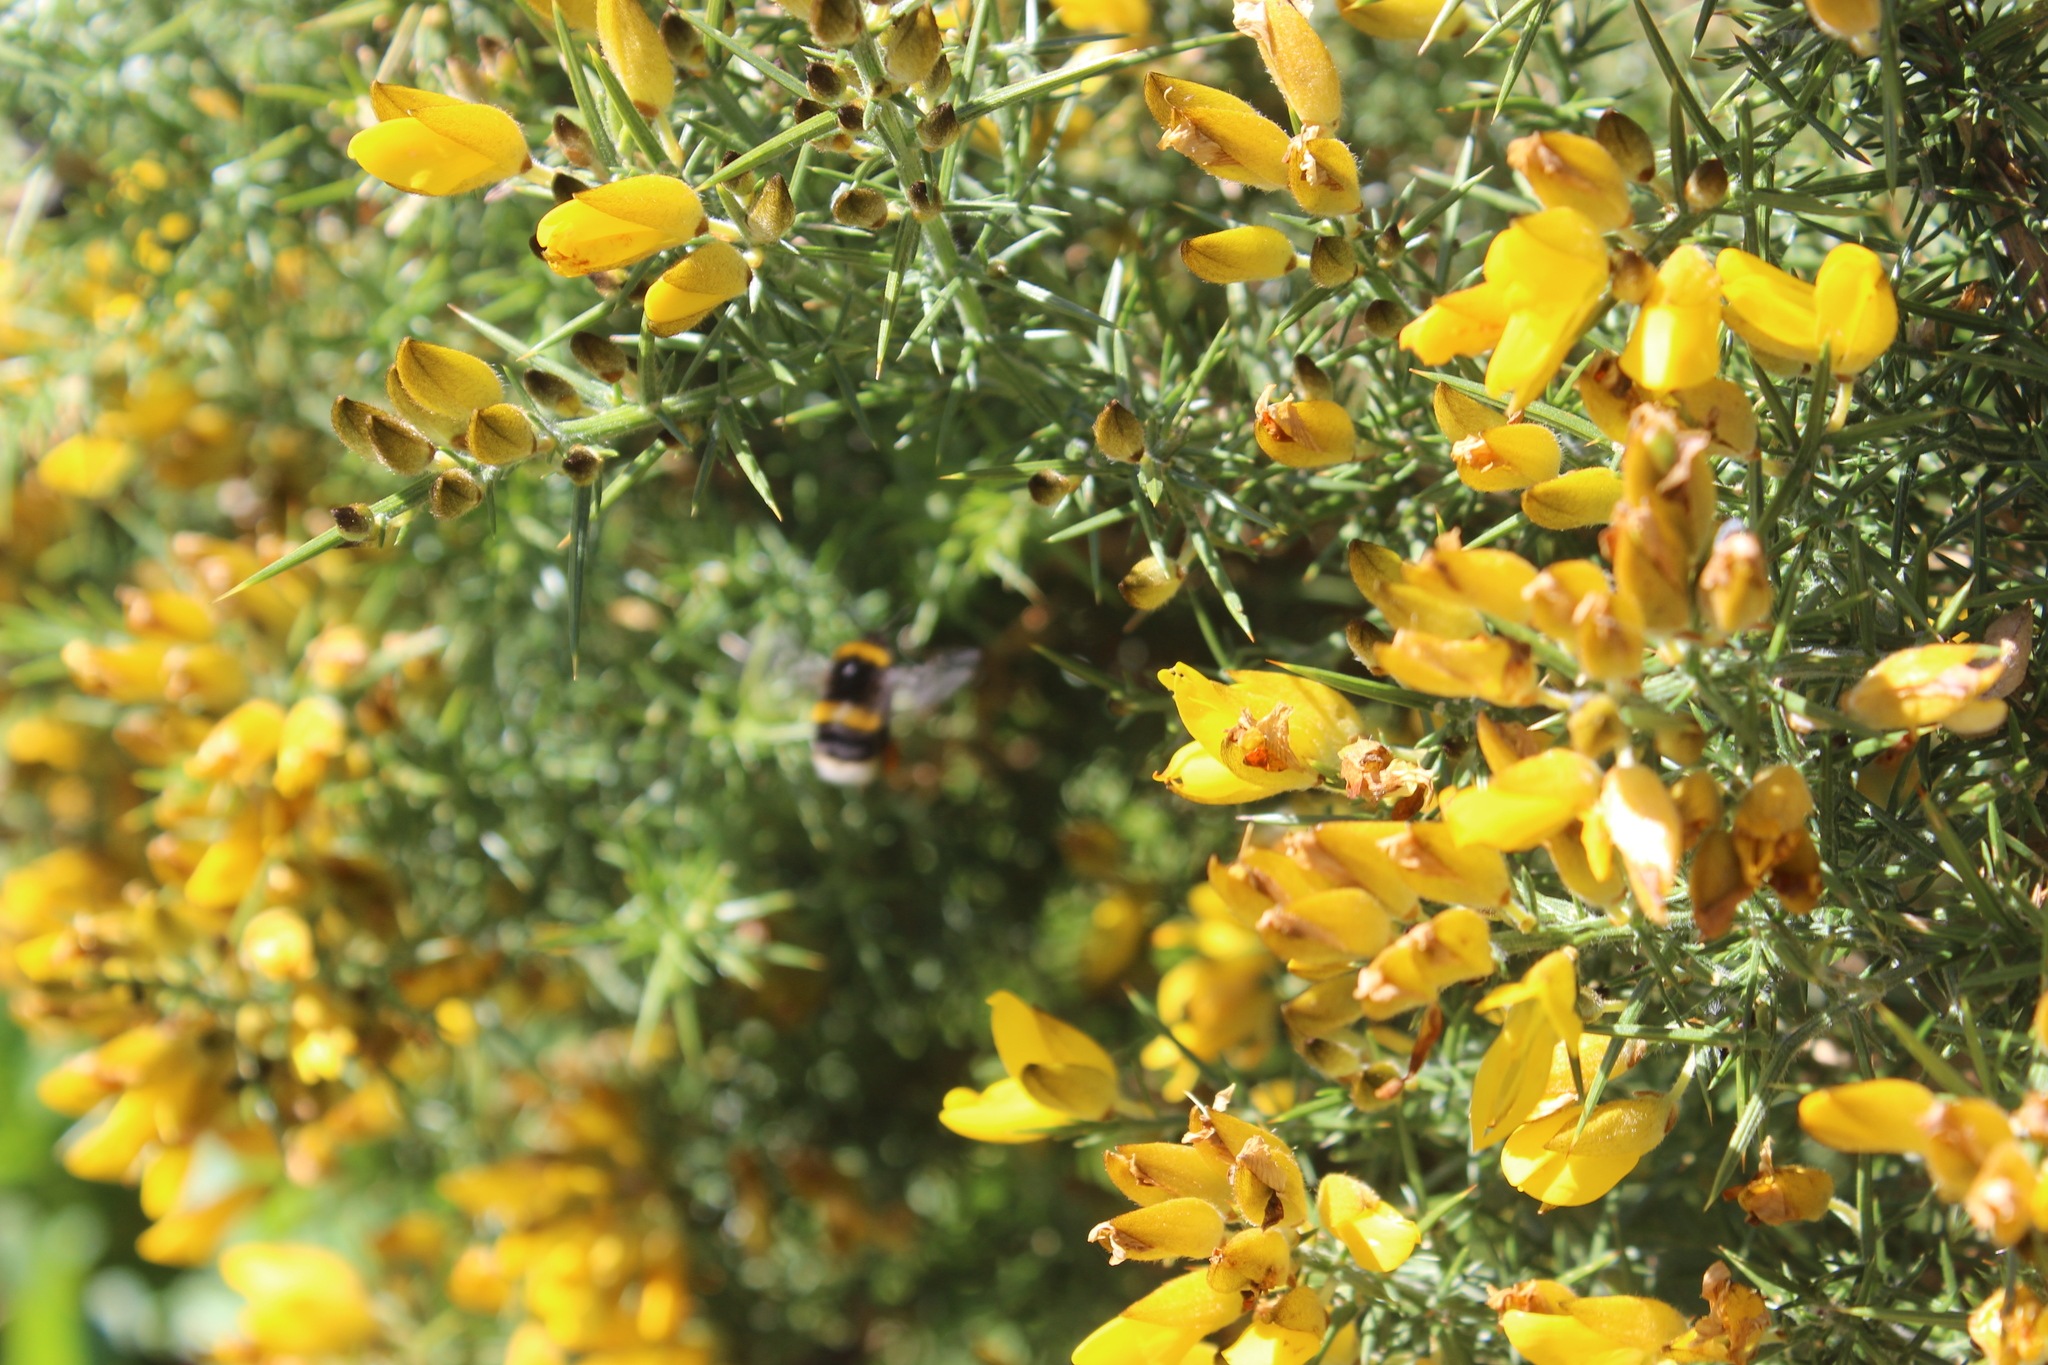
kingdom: Plantae
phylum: Tracheophyta
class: Magnoliopsida
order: Fabales
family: Fabaceae
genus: Ulex
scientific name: Ulex europaeus
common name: Common gorse
